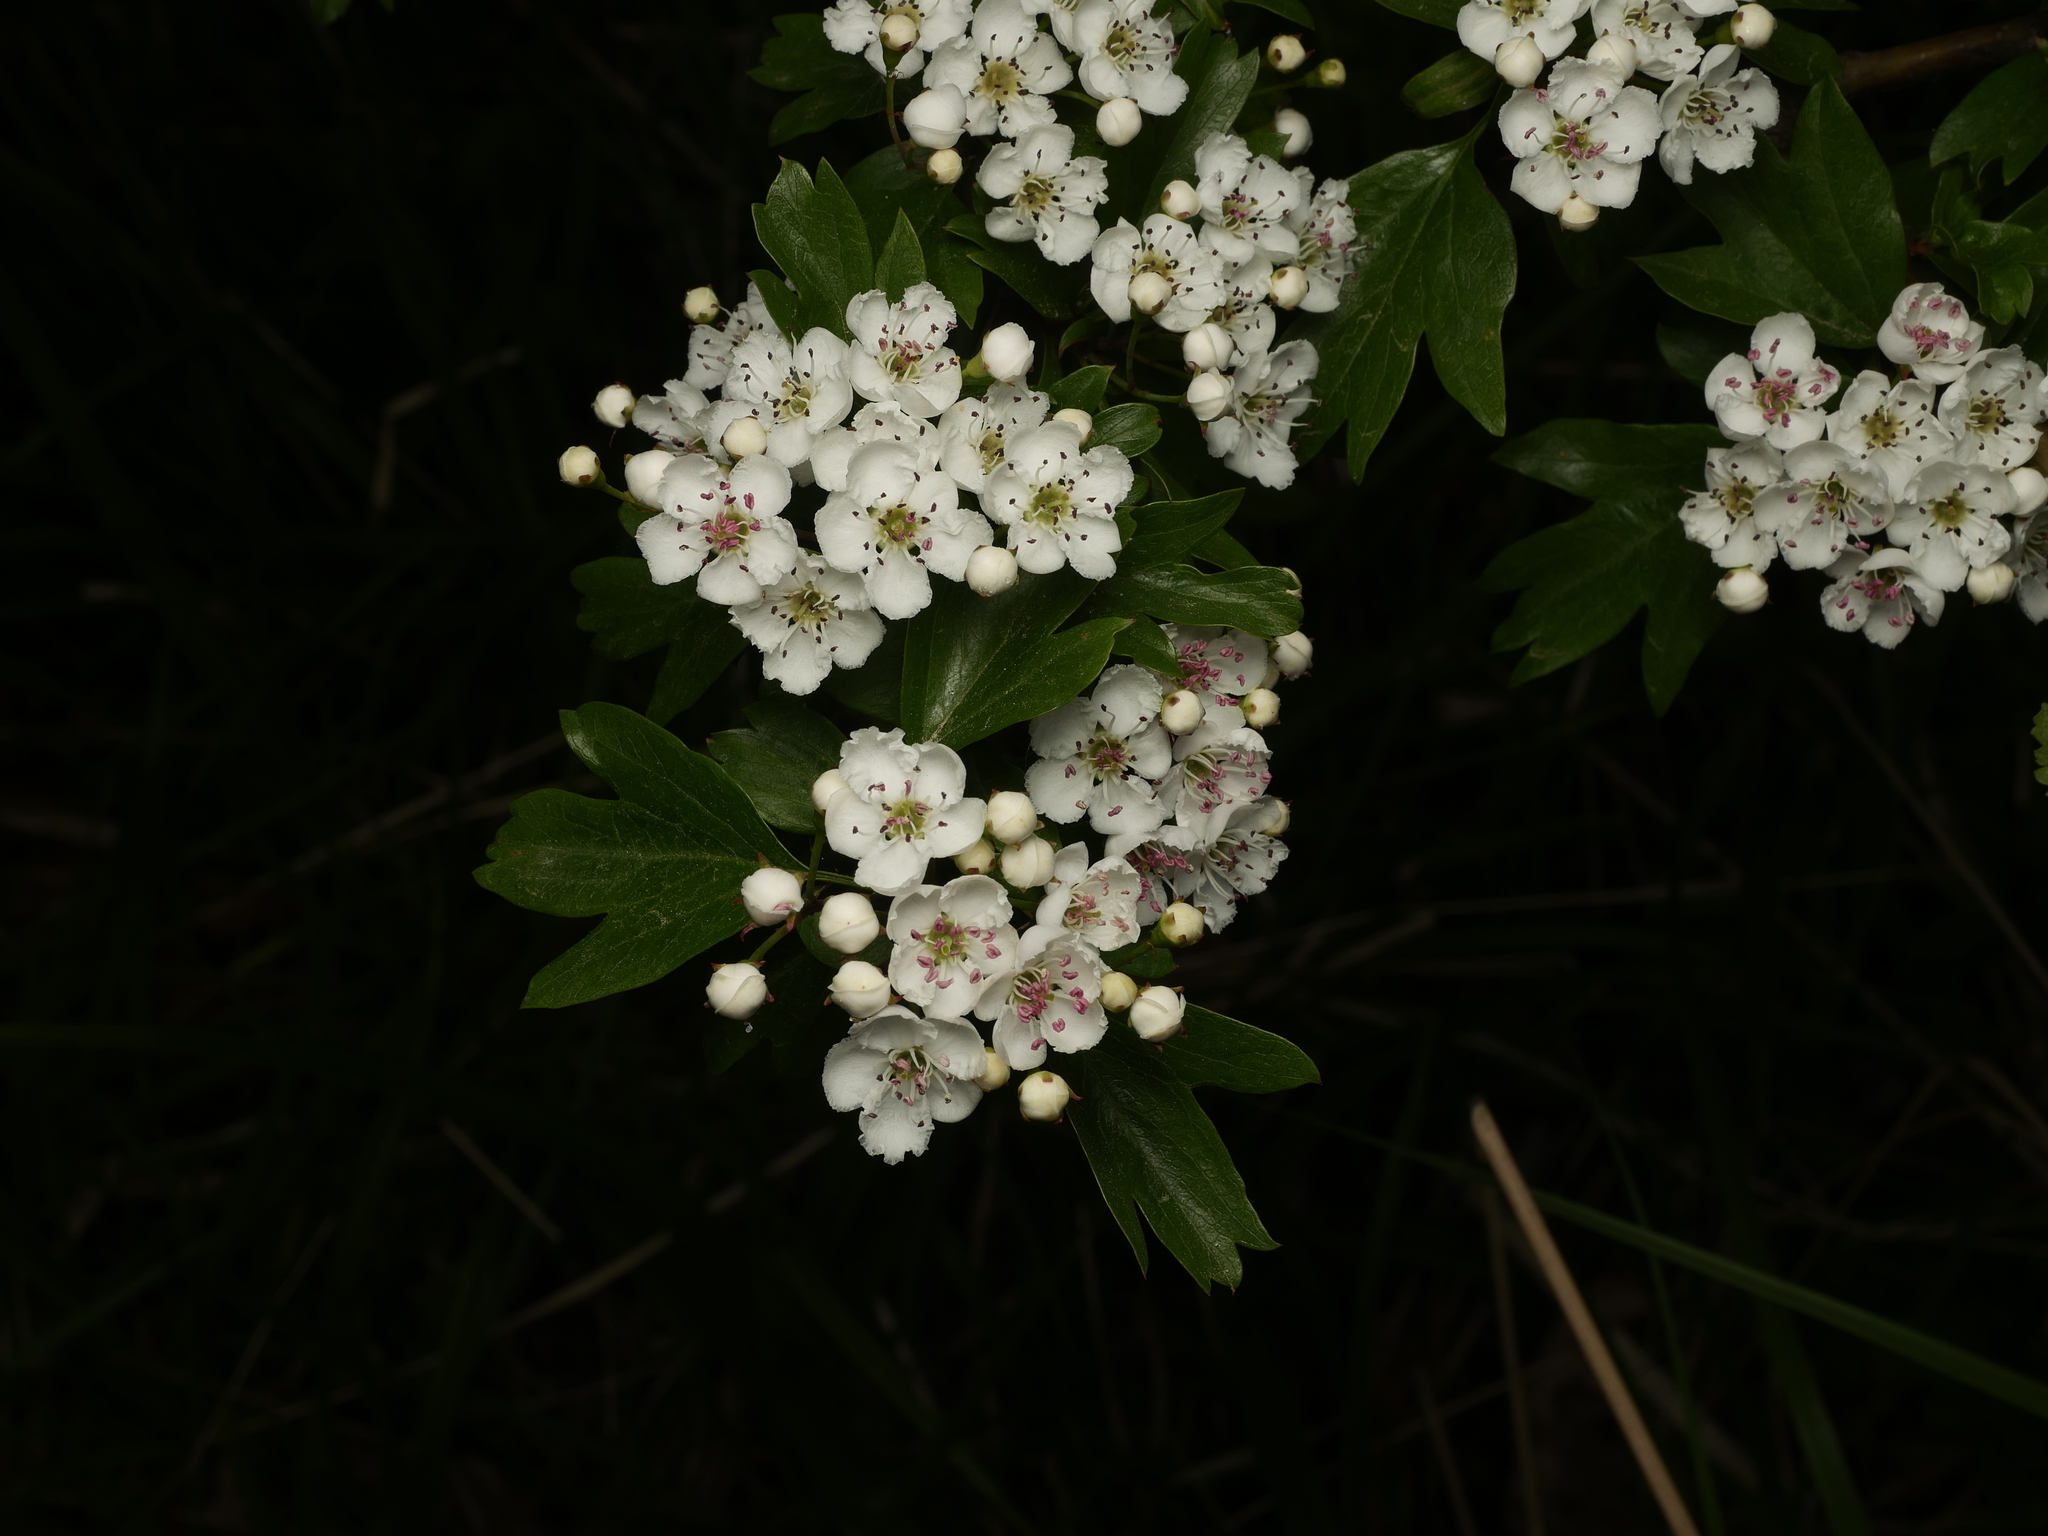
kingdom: Plantae
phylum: Tracheophyta
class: Magnoliopsida
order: Rosales
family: Rosaceae
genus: Crataegus
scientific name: Crataegus monogyna
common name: Hawthorn
